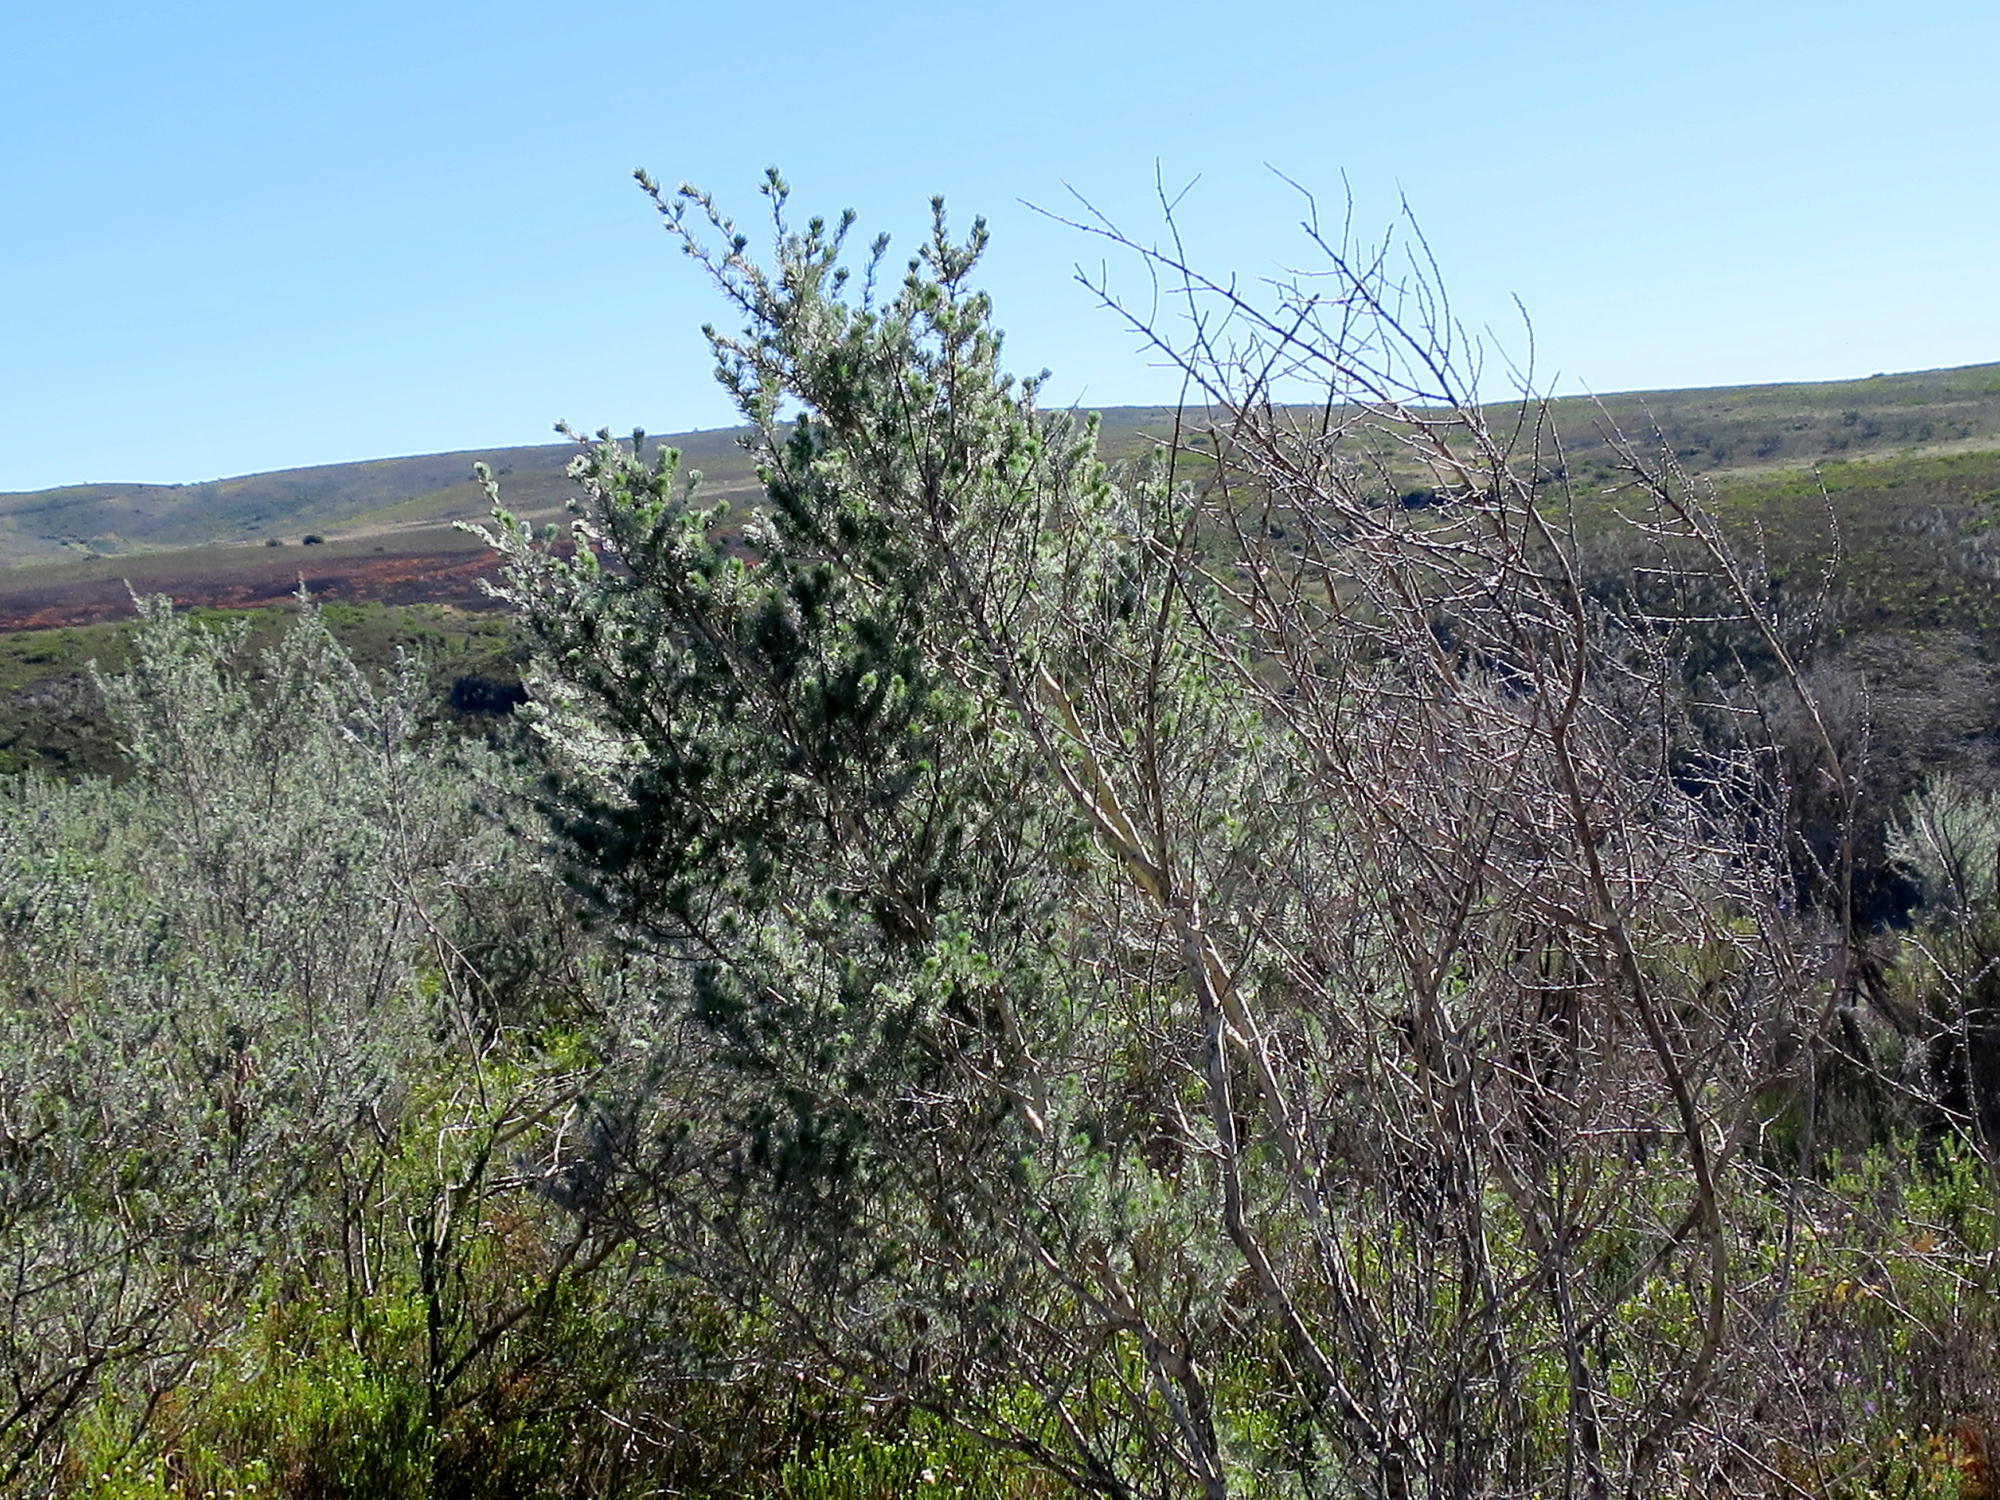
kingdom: Plantae
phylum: Tracheophyta
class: Magnoliopsida
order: Fabales
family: Fabaceae
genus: Aspalathus
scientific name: Aspalathus kougaensis
